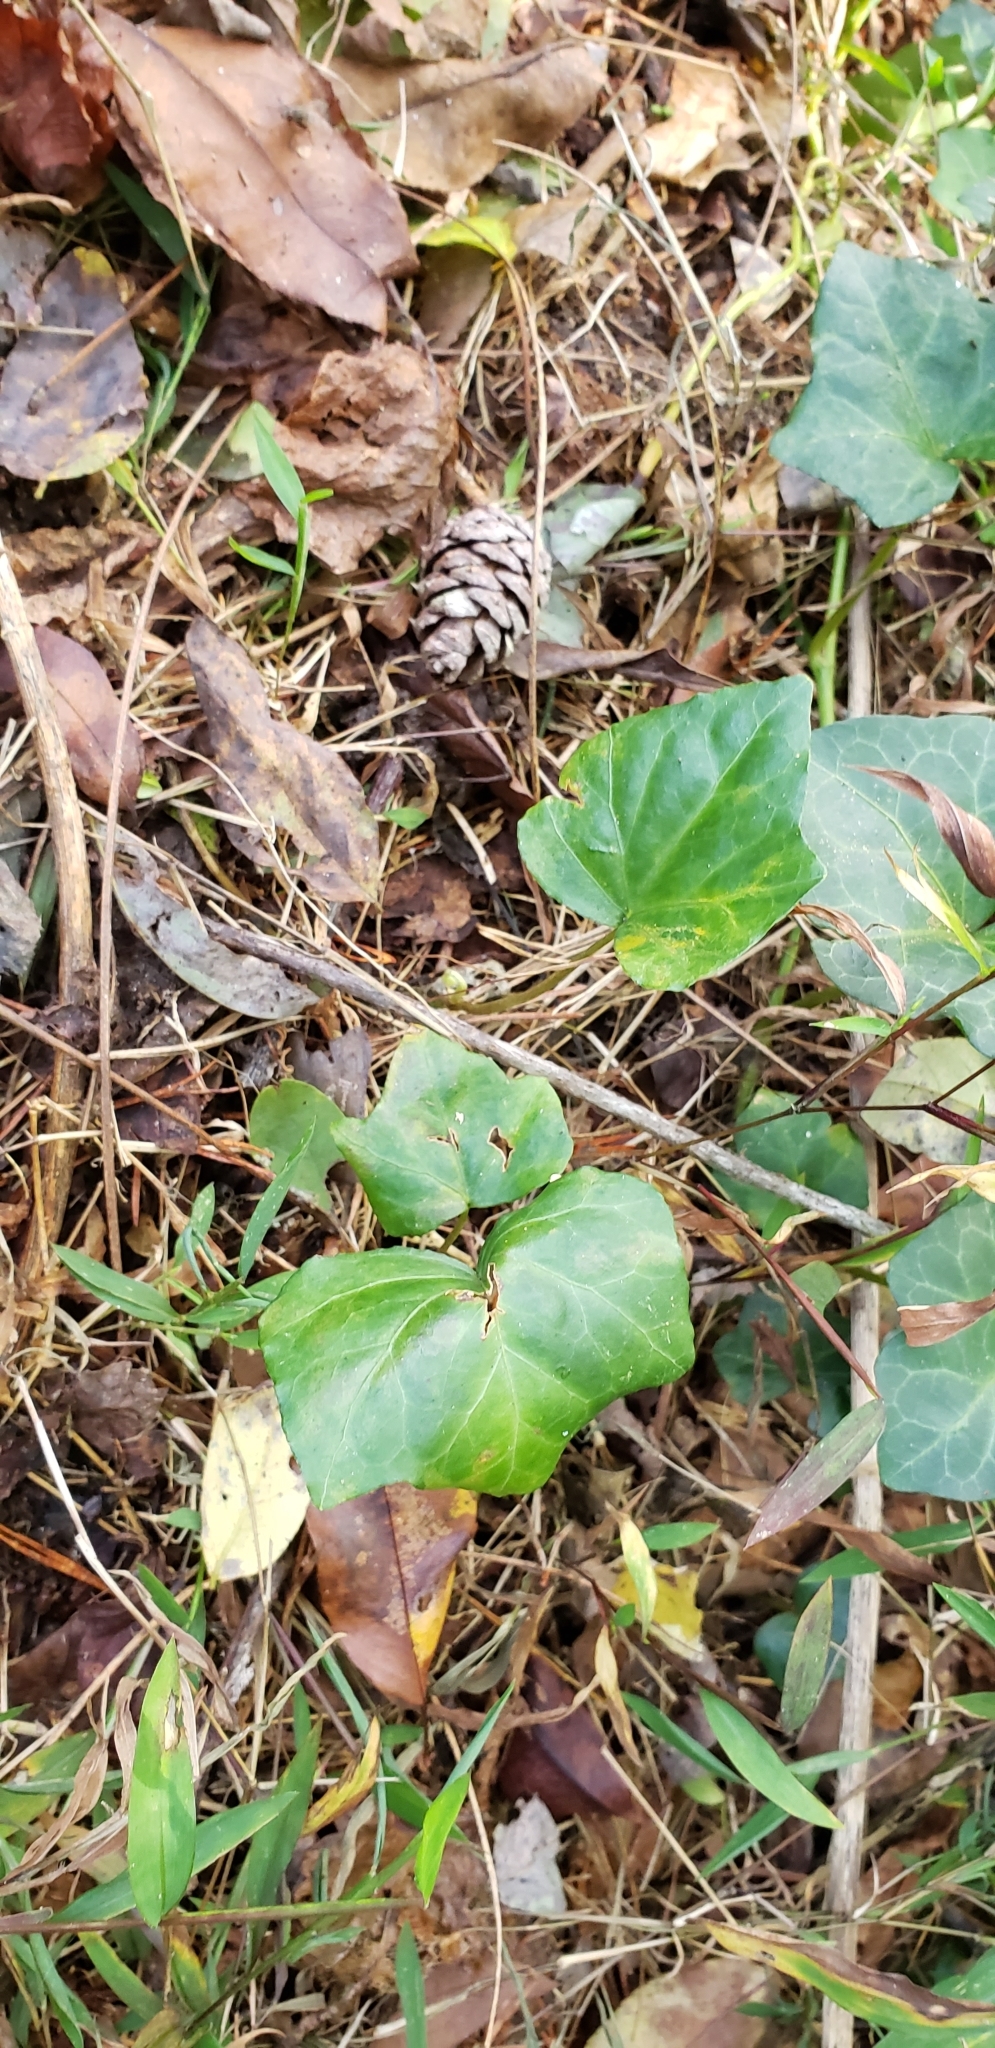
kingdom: Plantae
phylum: Tracheophyta
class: Magnoliopsida
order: Apiales
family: Araliaceae
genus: Hedera
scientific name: Hedera helix
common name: Ivy
